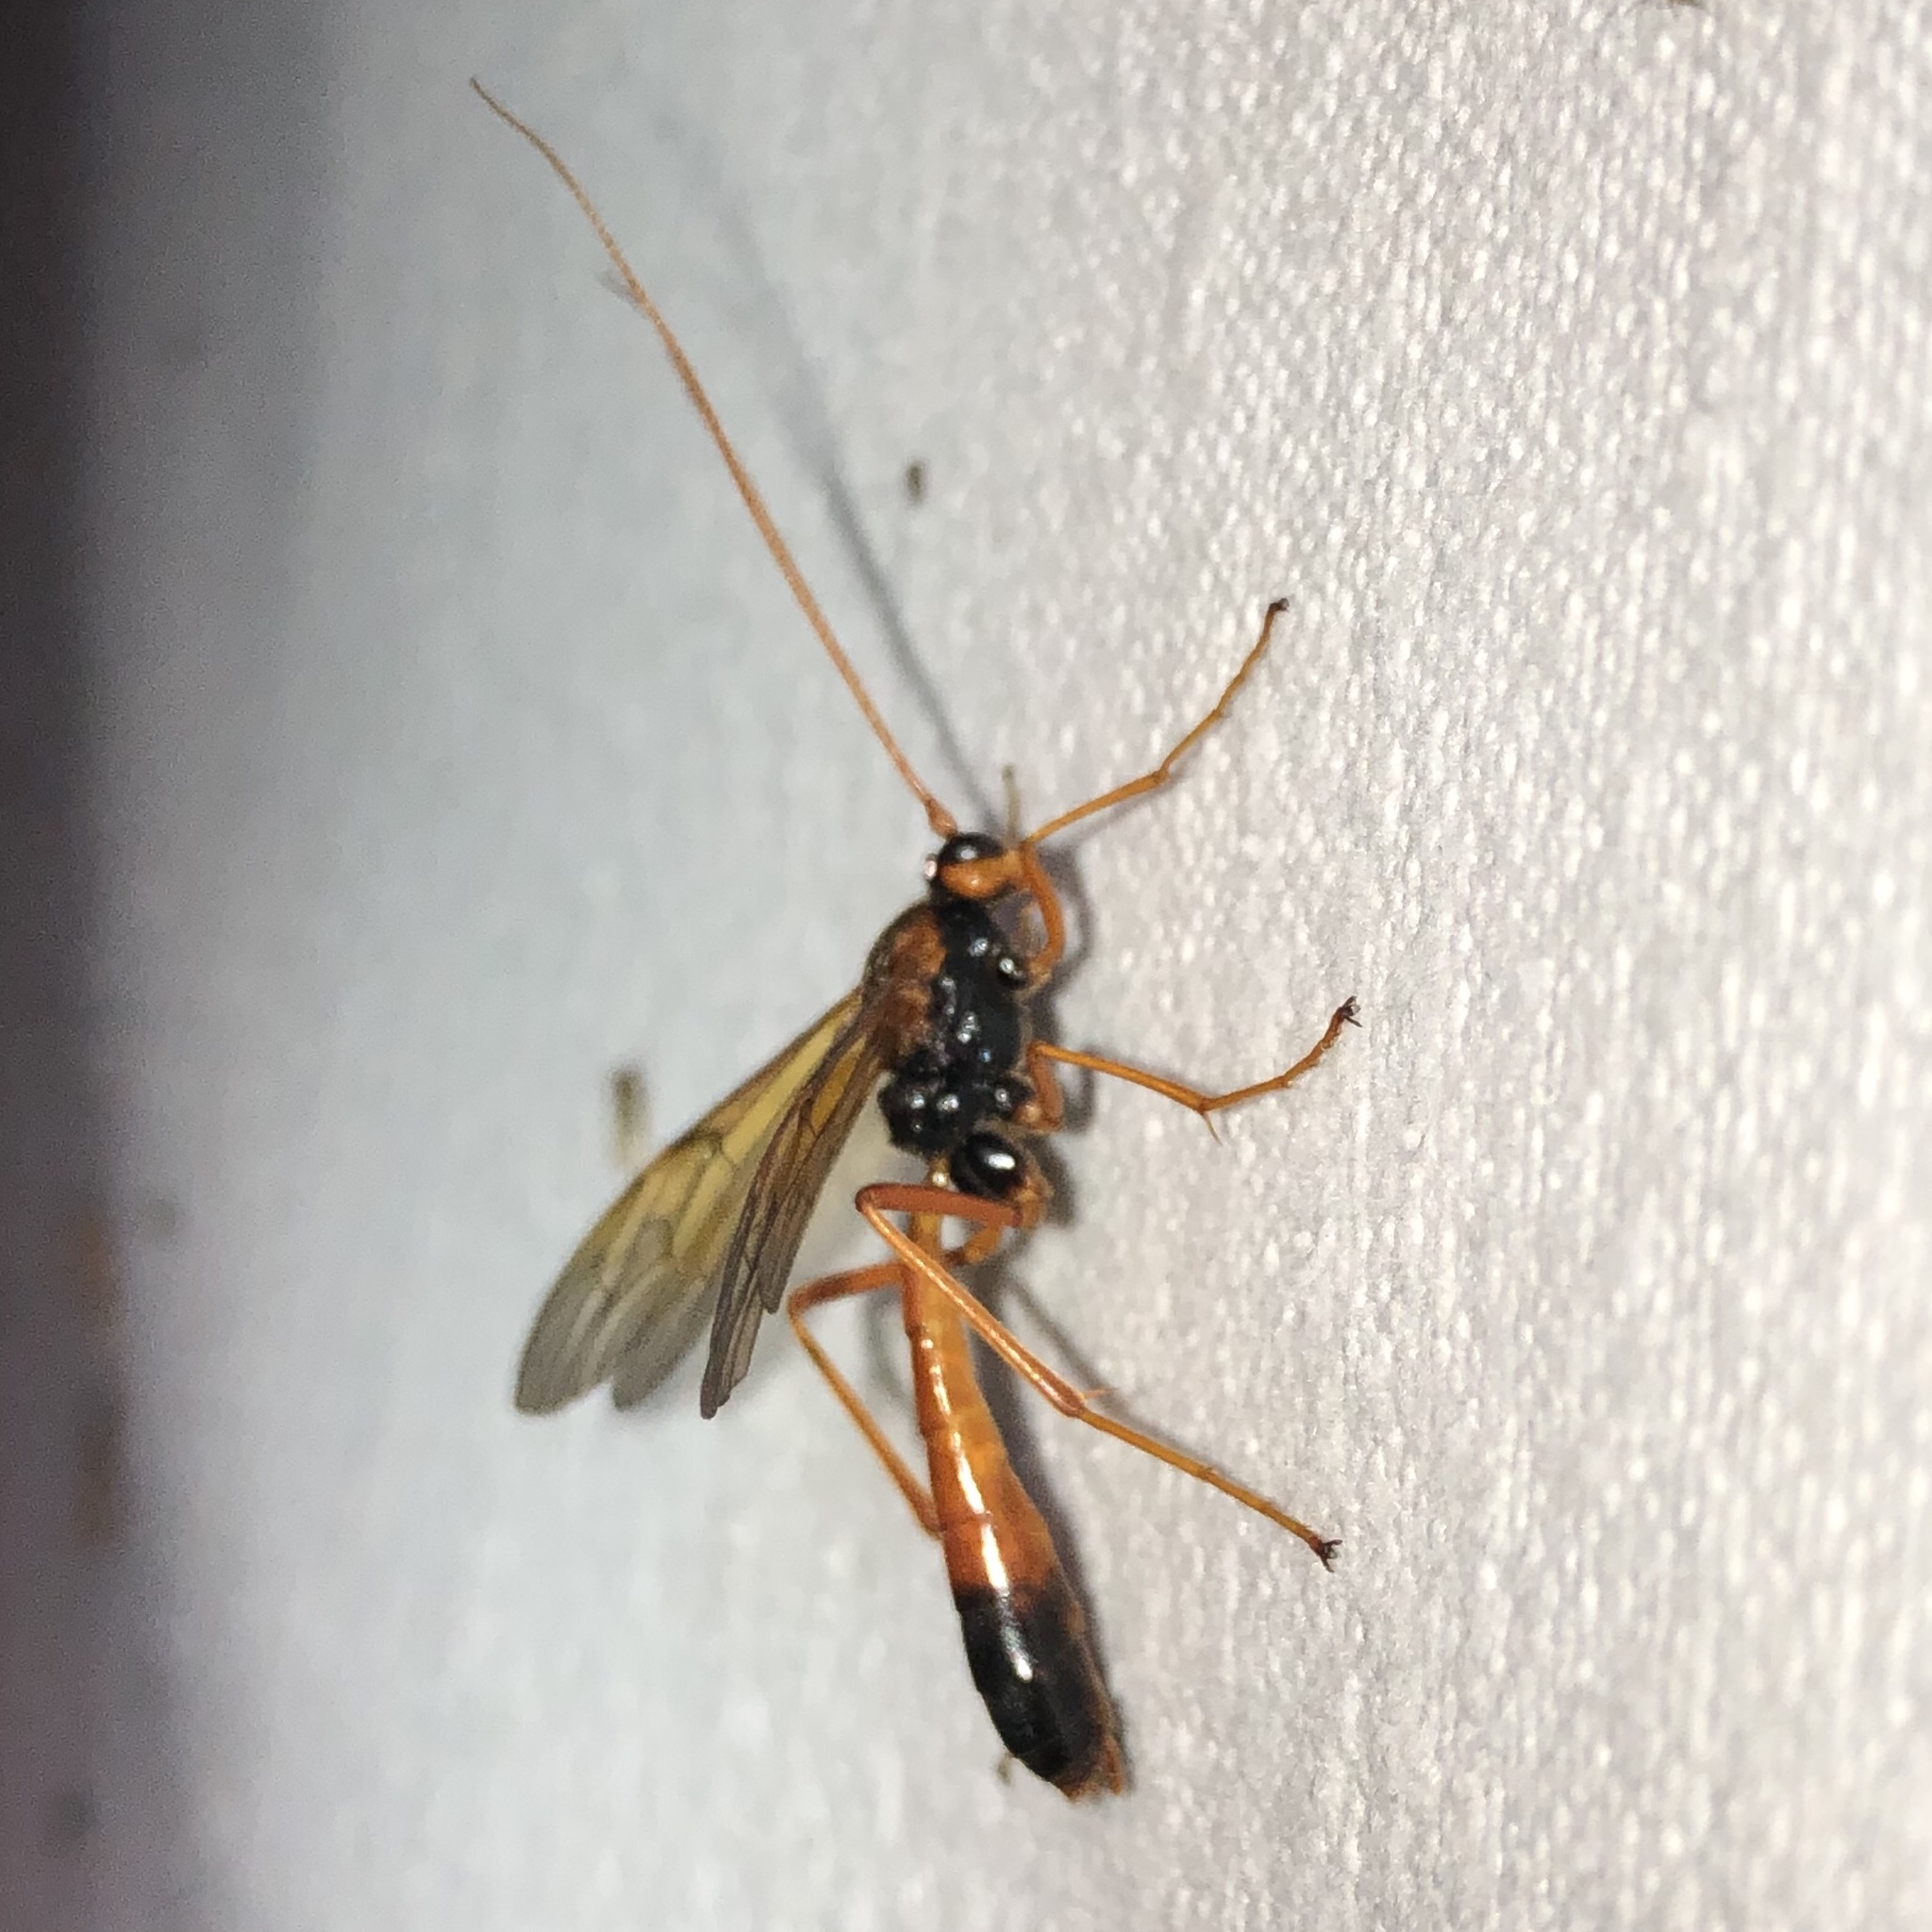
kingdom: Animalia
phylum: Arthropoda
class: Insecta
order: Hymenoptera
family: Ichneumonidae
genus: Opheltes
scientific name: Opheltes glaucopterus
